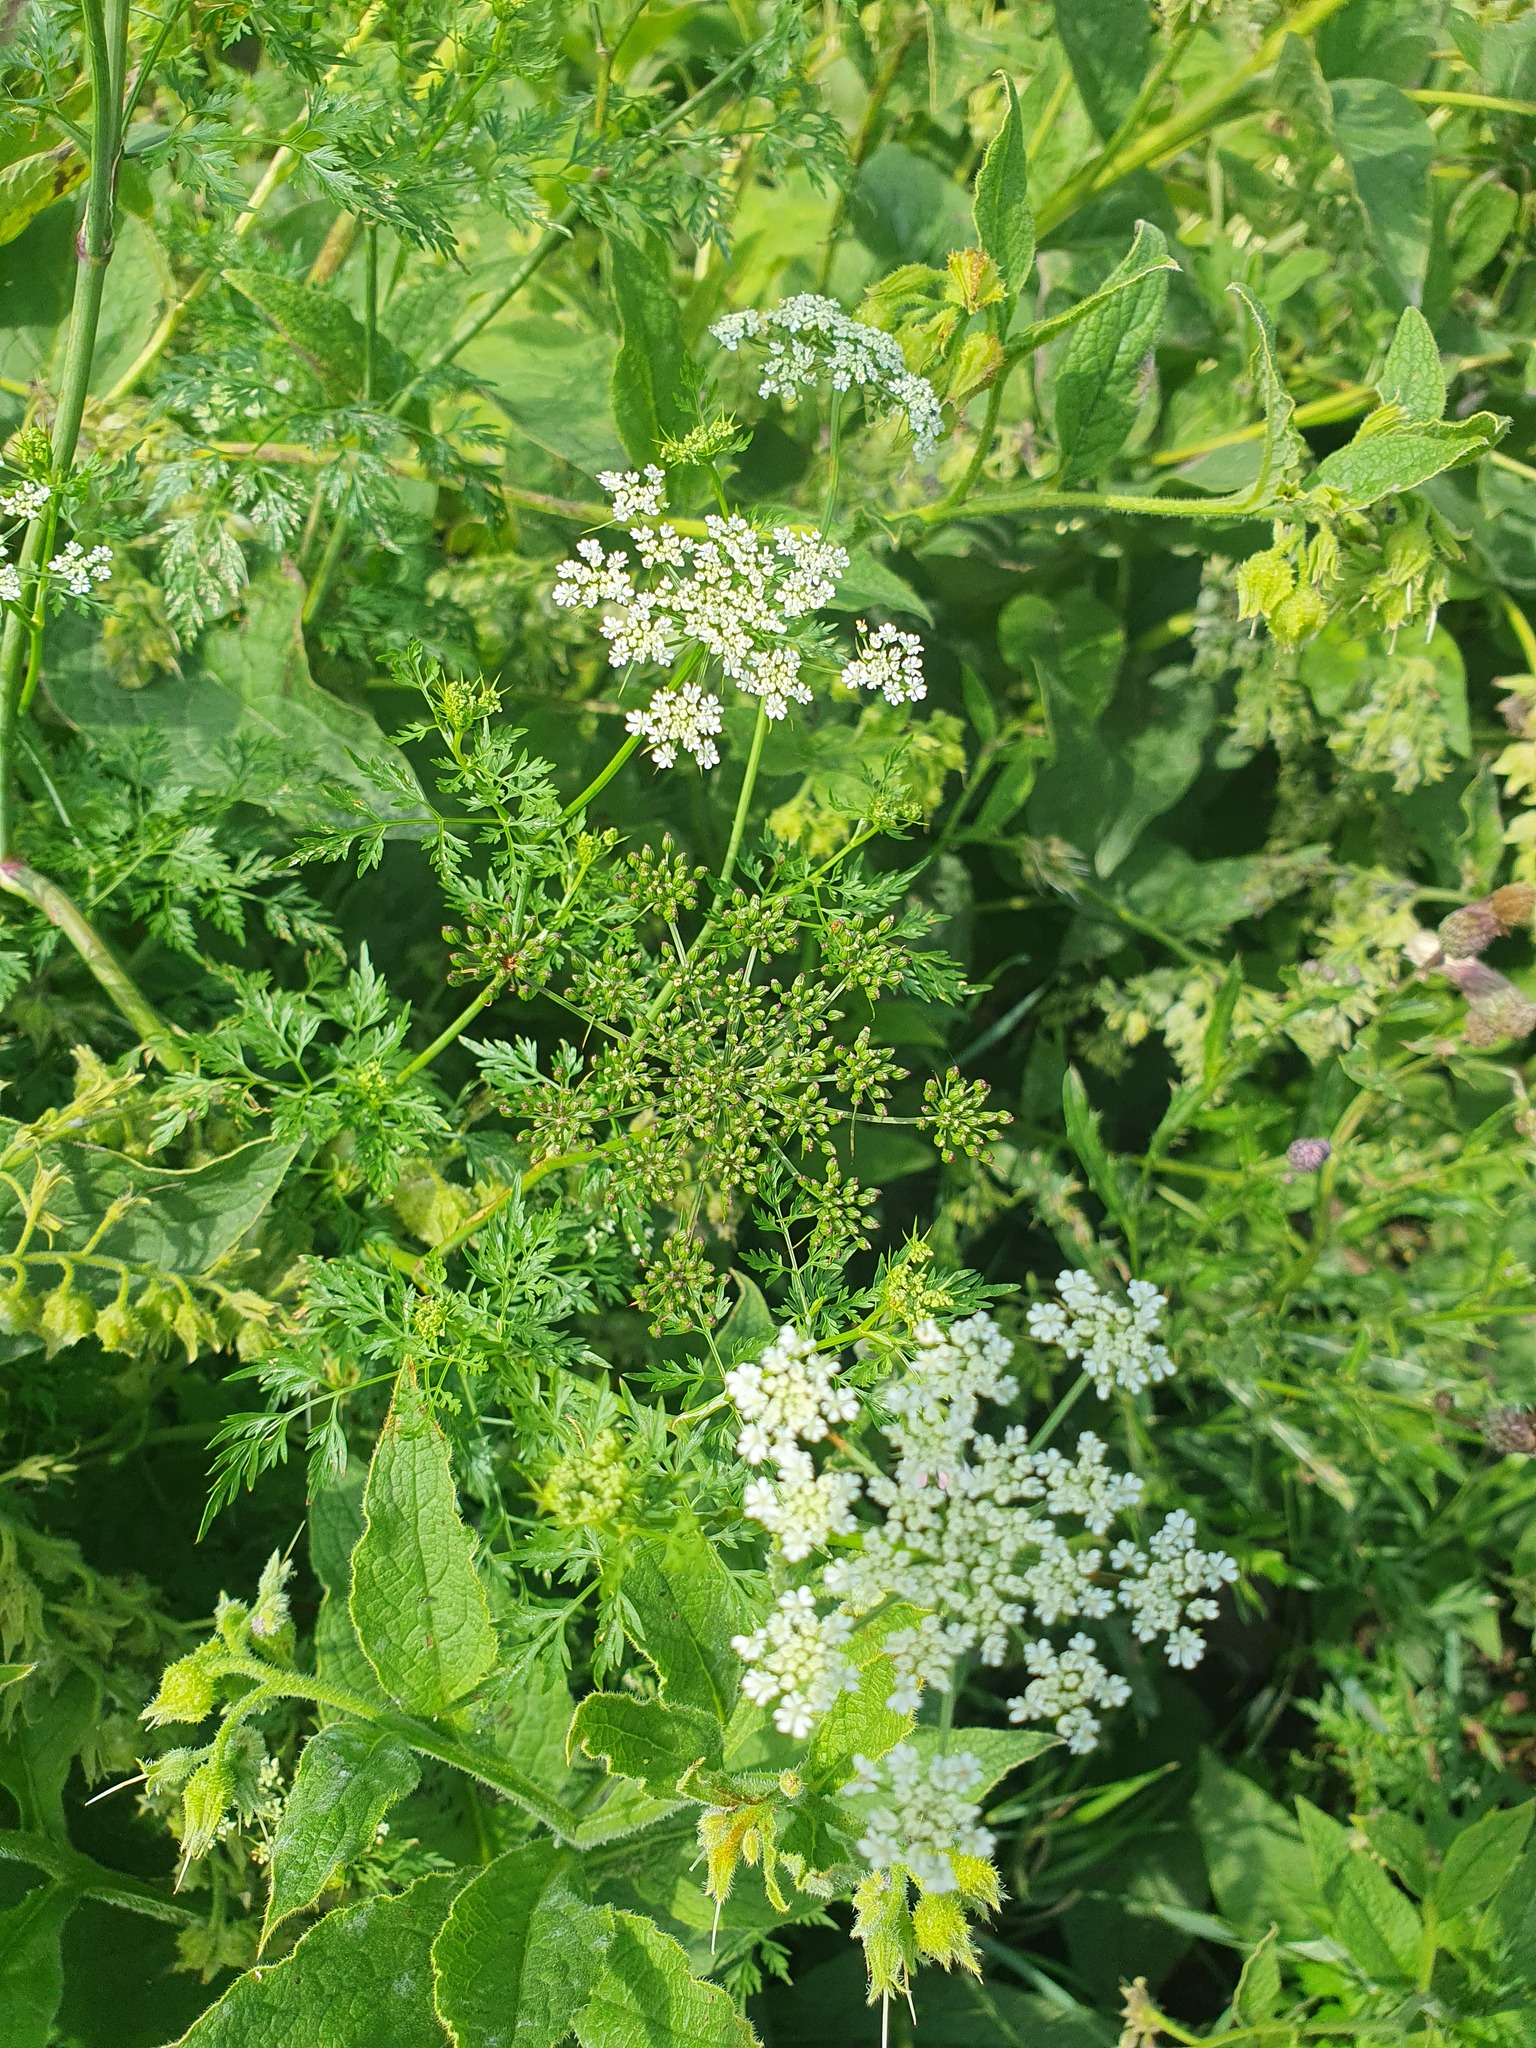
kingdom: Plantae
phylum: Tracheophyta
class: Magnoliopsida
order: Apiales
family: Apiaceae
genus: Aethusa
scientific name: Aethusa cynapium
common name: Fool's parsley
